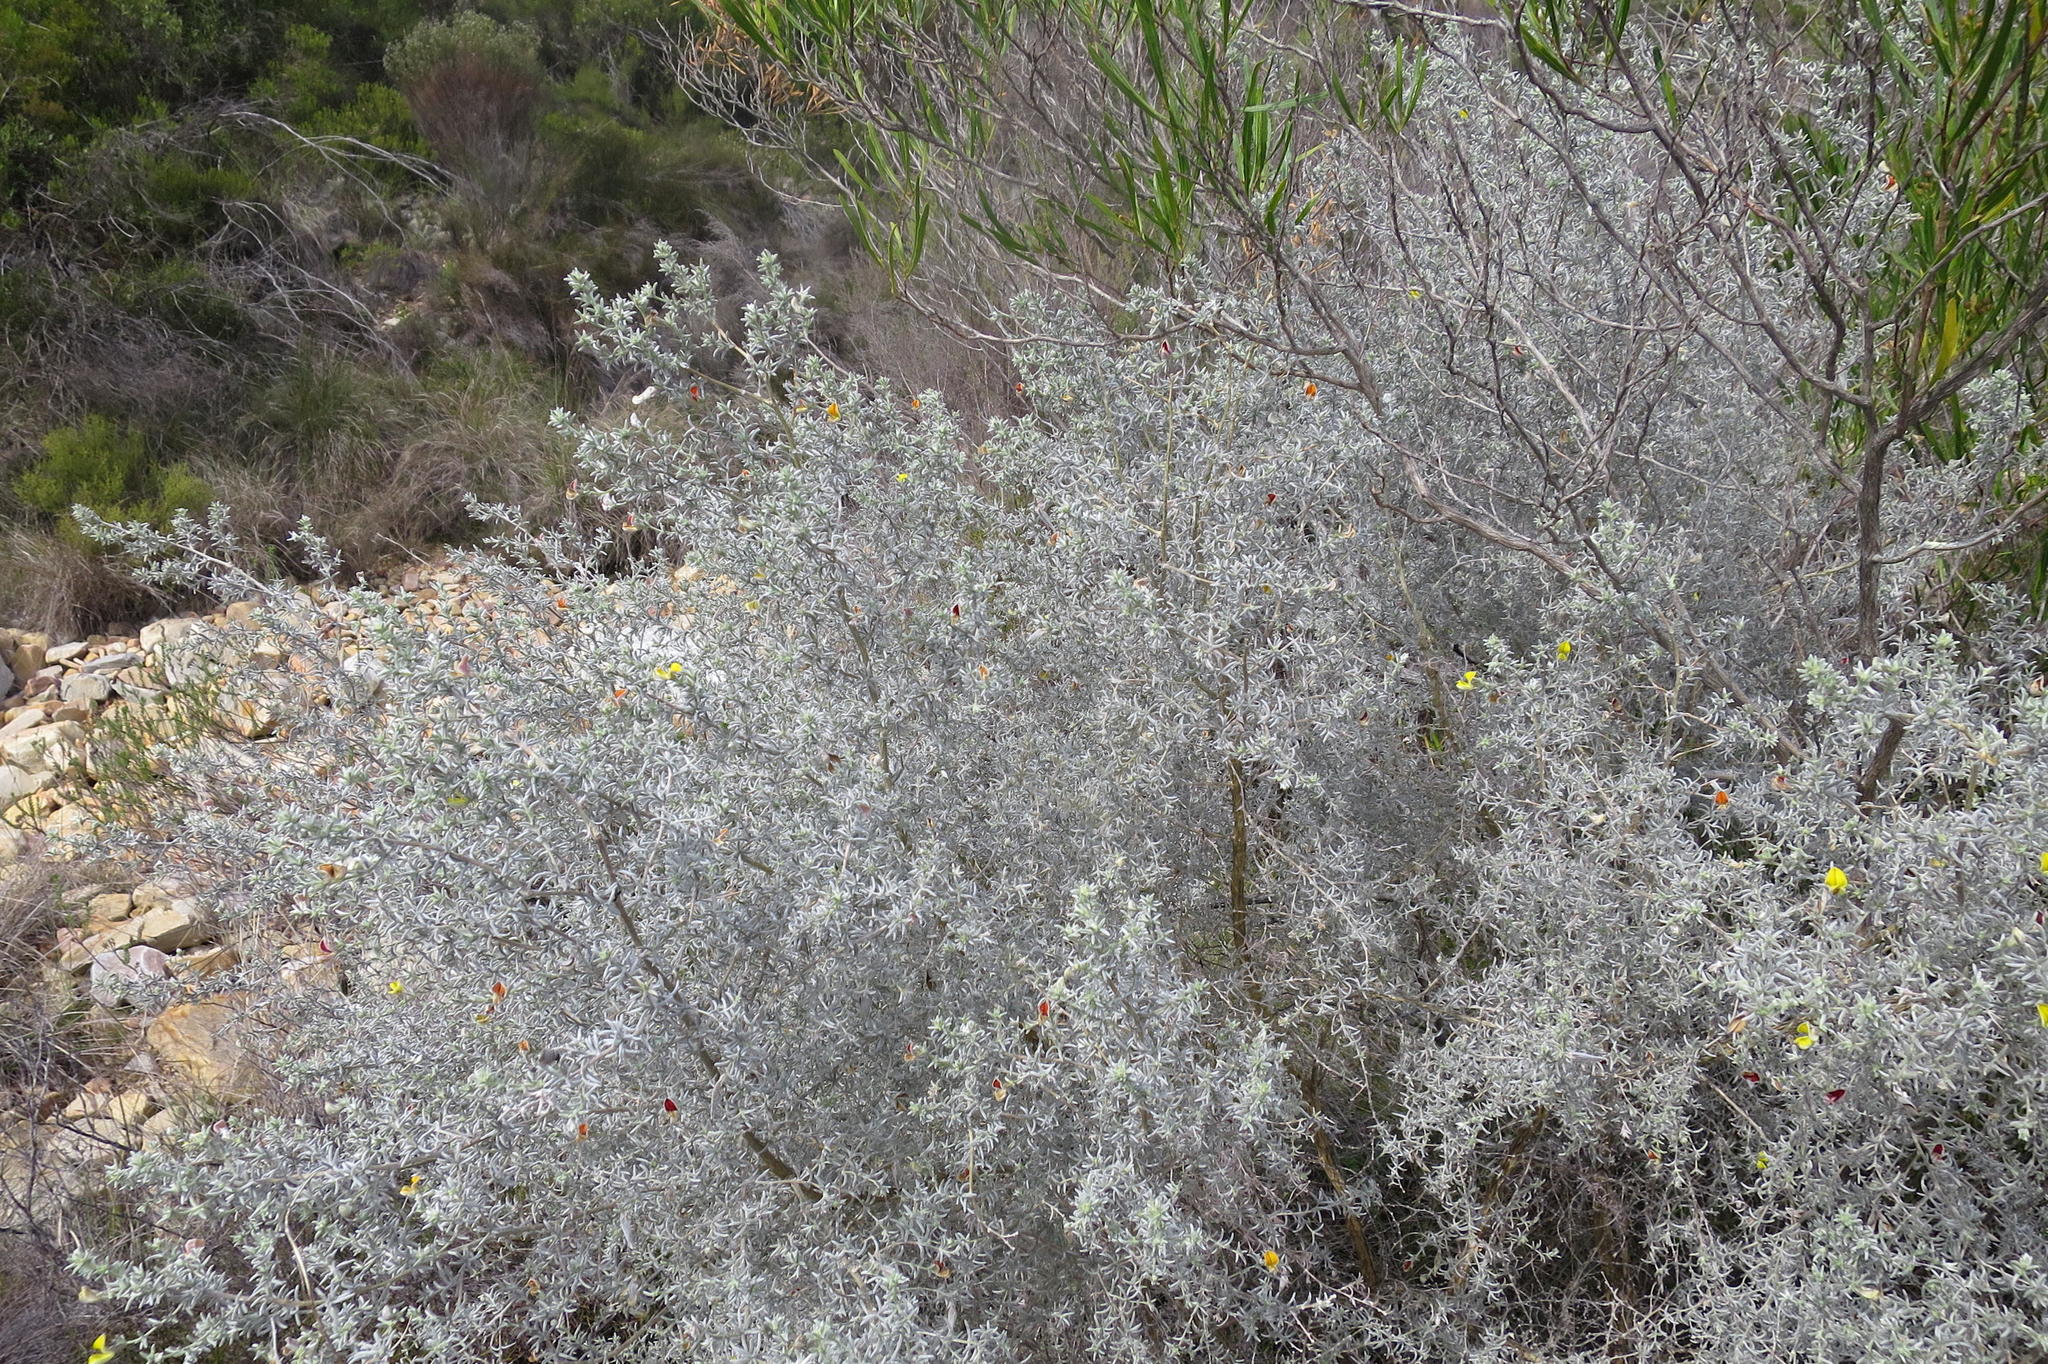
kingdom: Plantae
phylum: Tracheophyta
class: Magnoliopsida
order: Fabales
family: Fabaceae
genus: Aspalathus
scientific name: Aspalathus pedunculata
